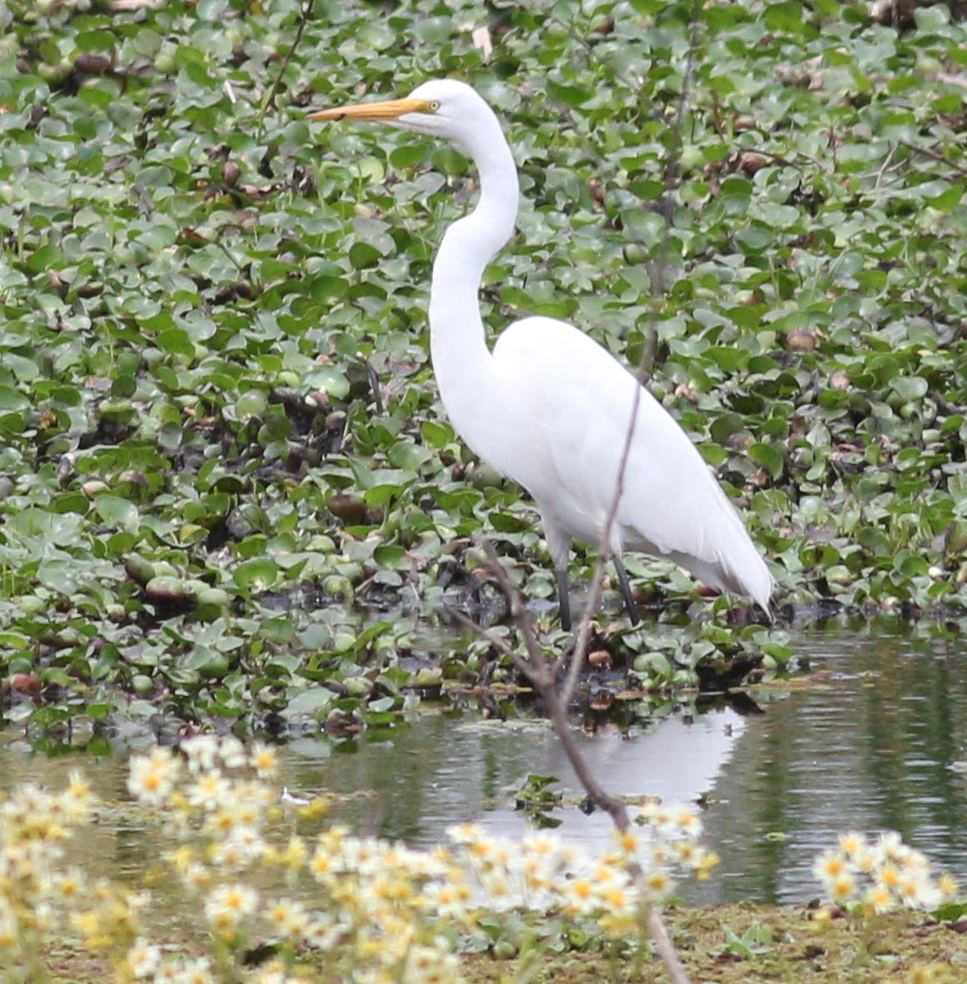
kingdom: Animalia
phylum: Chordata
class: Aves
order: Pelecaniformes
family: Ardeidae
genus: Ardea
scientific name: Ardea alba
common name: Great egret
